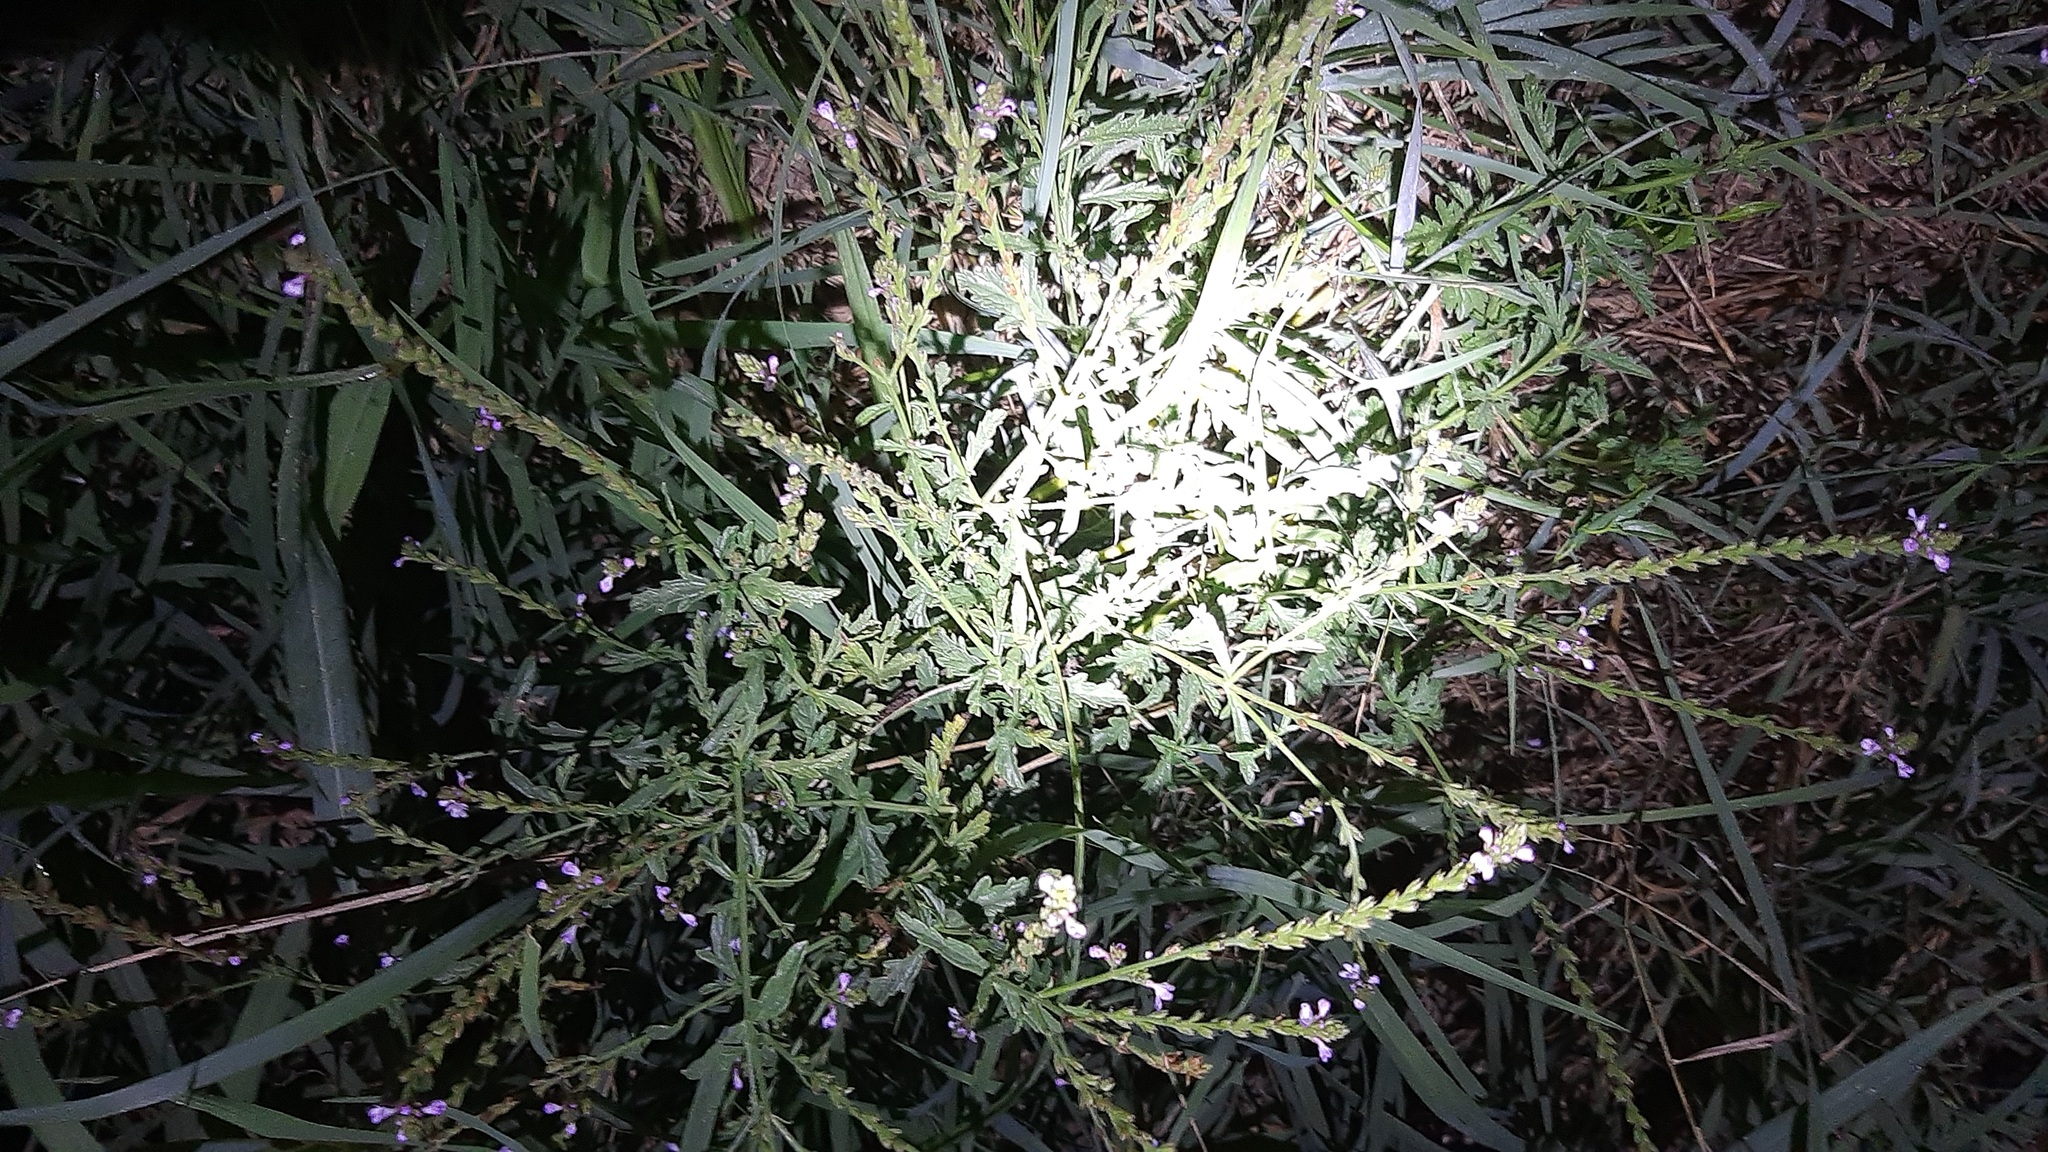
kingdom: Plantae
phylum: Tracheophyta
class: Magnoliopsida
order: Lamiales
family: Verbenaceae
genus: Verbena
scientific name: Verbena officinalis
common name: Vervain
